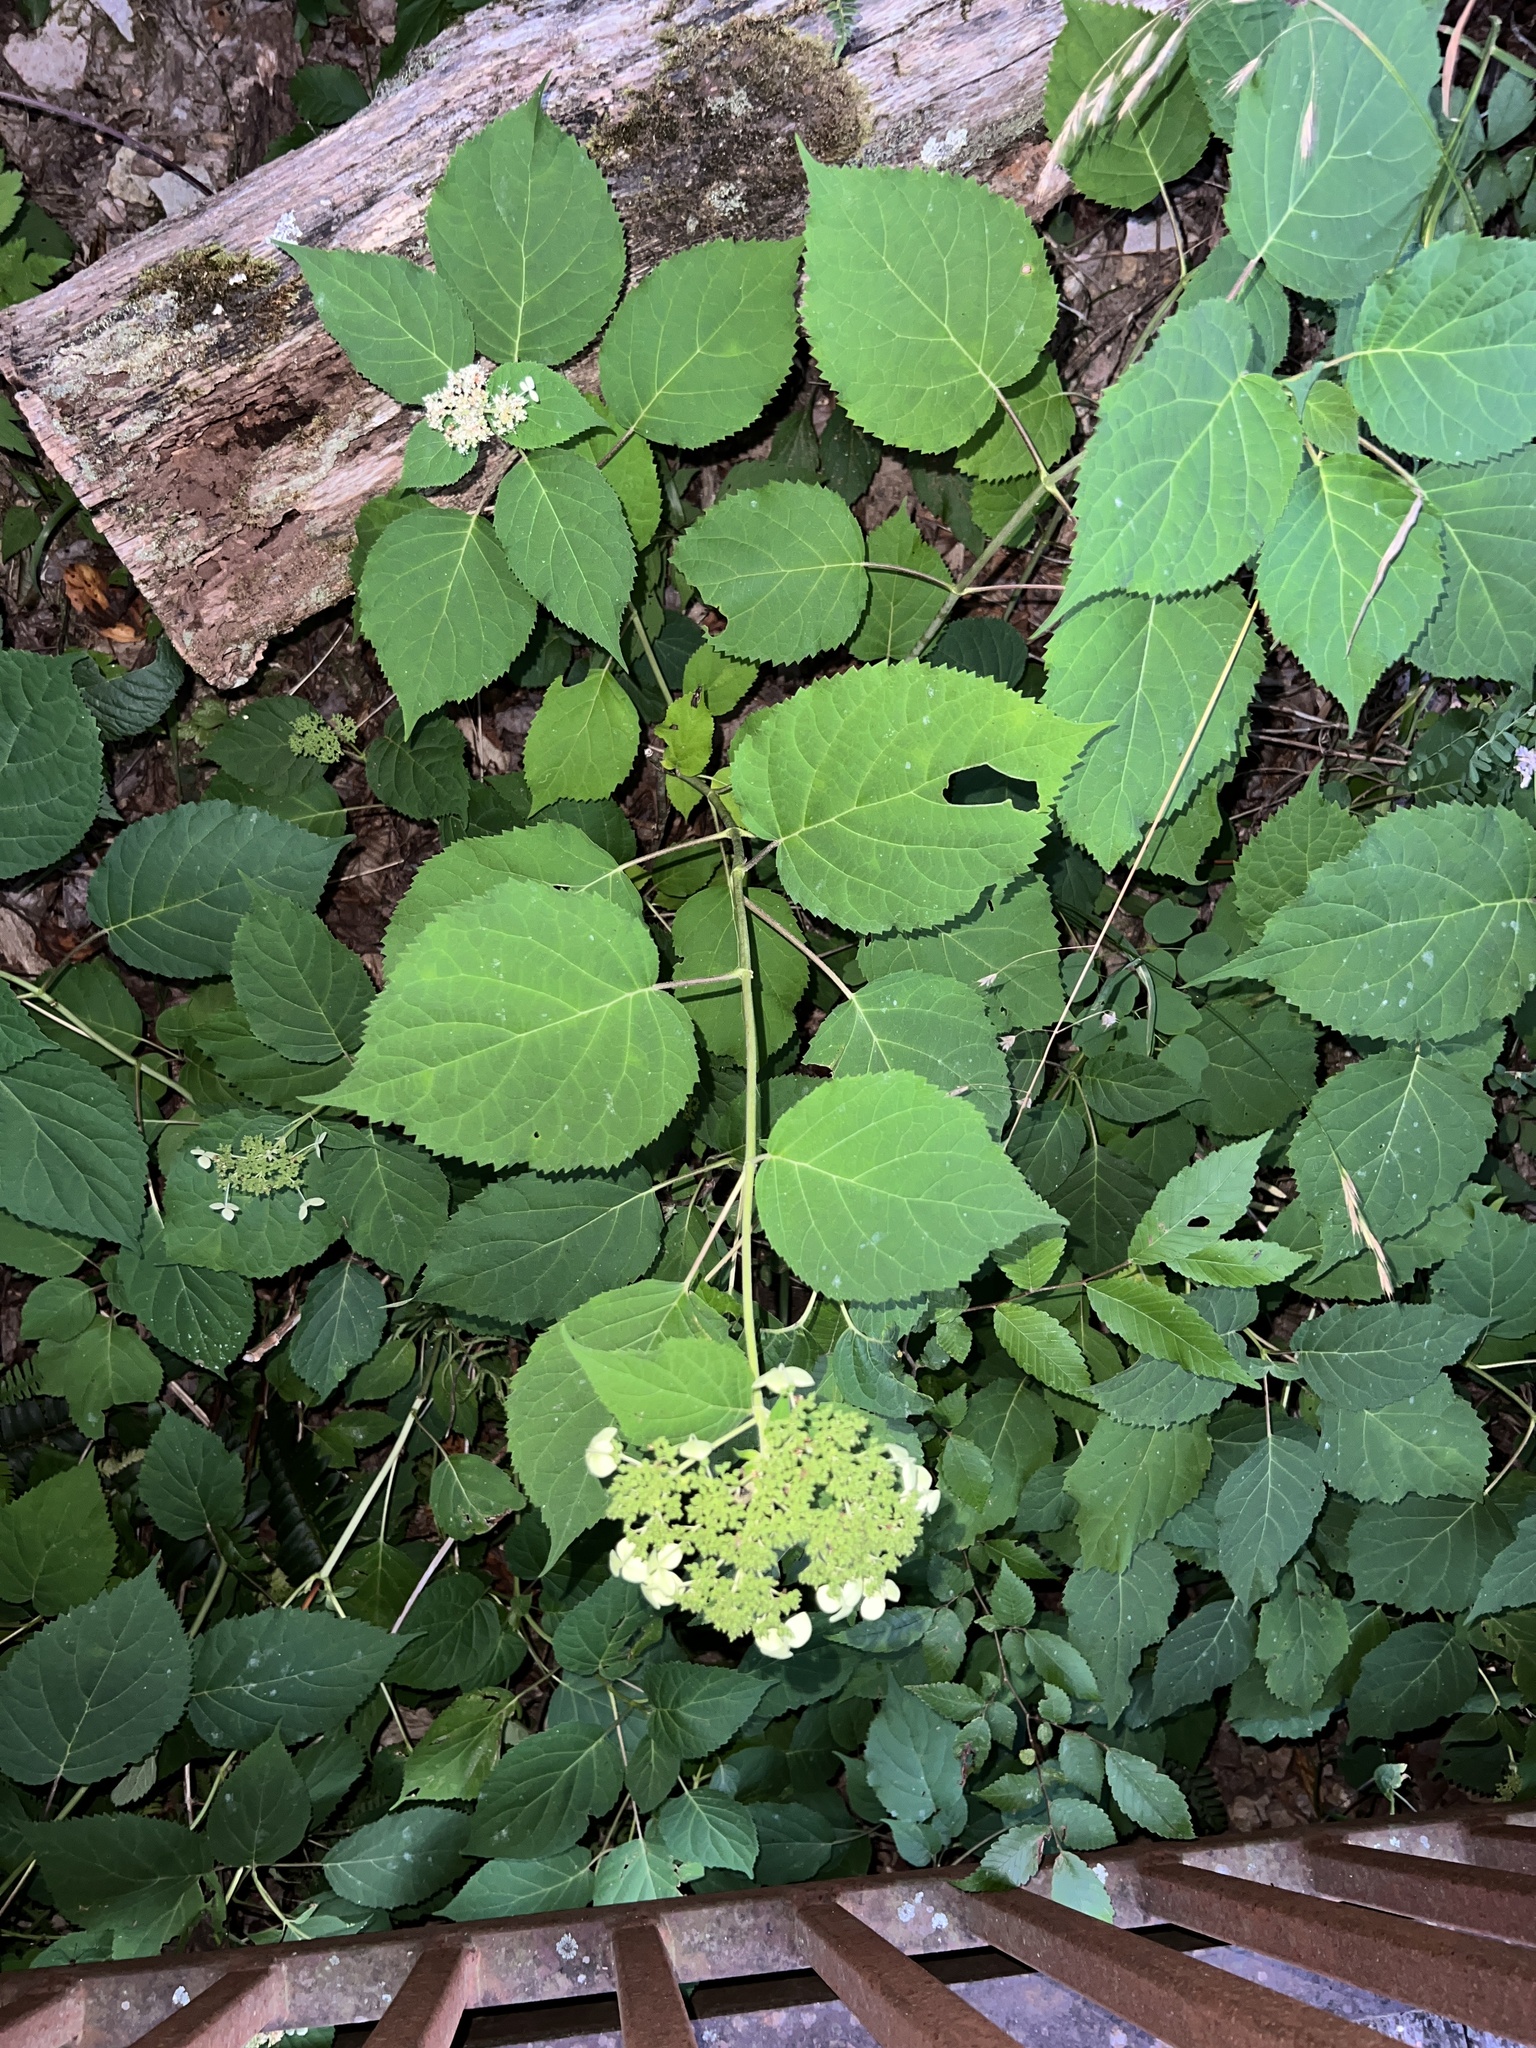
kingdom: Plantae
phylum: Tracheophyta
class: Magnoliopsida
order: Cornales
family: Hydrangeaceae
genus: Hydrangea
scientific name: Hydrangea arborescens
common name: Sevenbark
